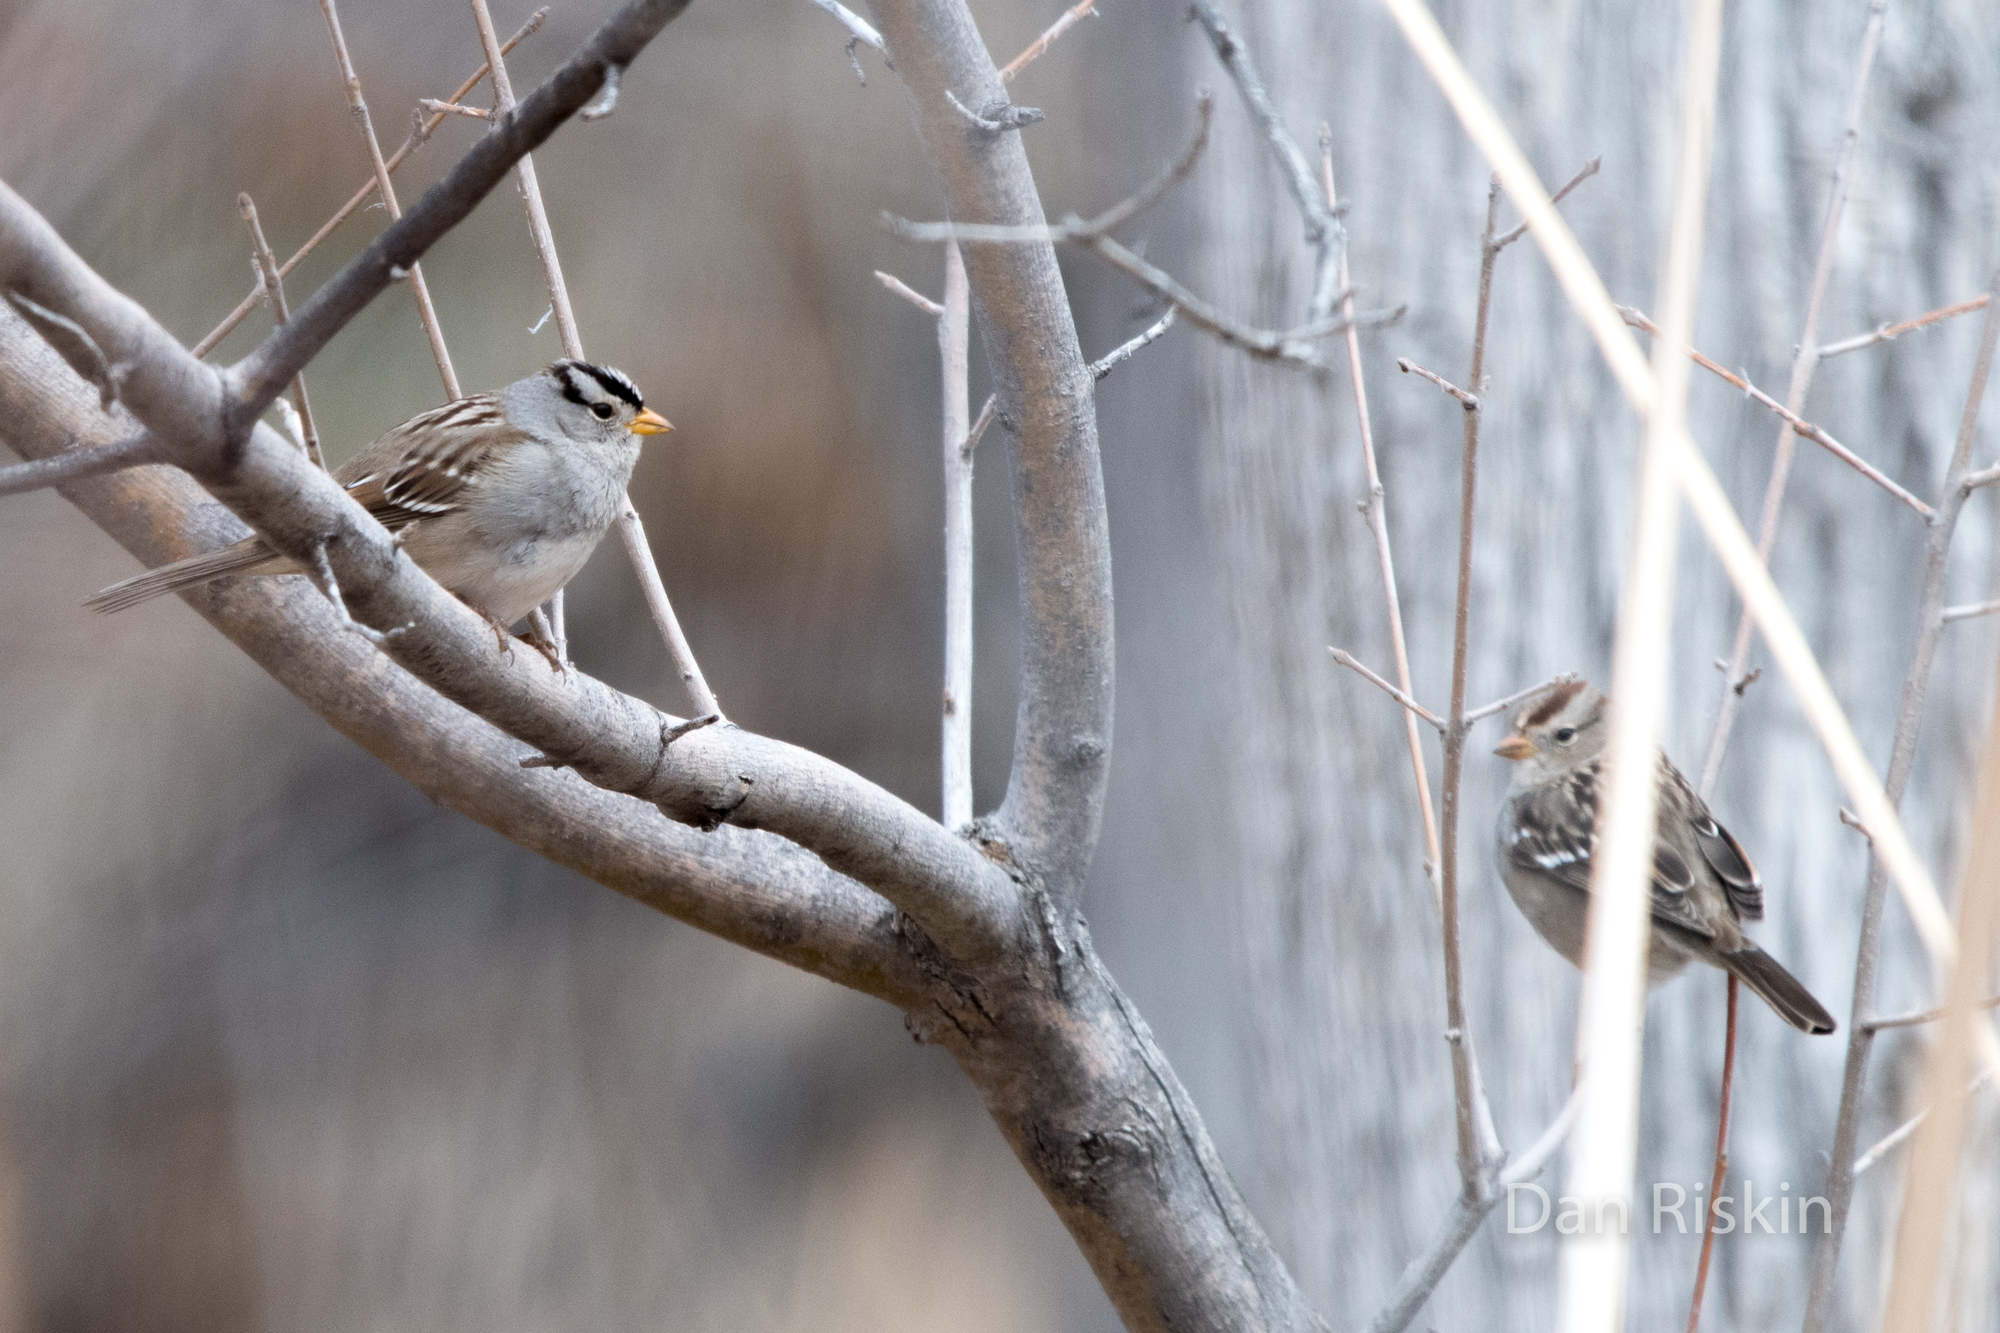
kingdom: Animalia
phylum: Chordata
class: Aves
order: Passeriformes
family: Passerellidae
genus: Zonotrichia
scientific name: Zonotrichia leucophrys
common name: White-crowned sparrow
